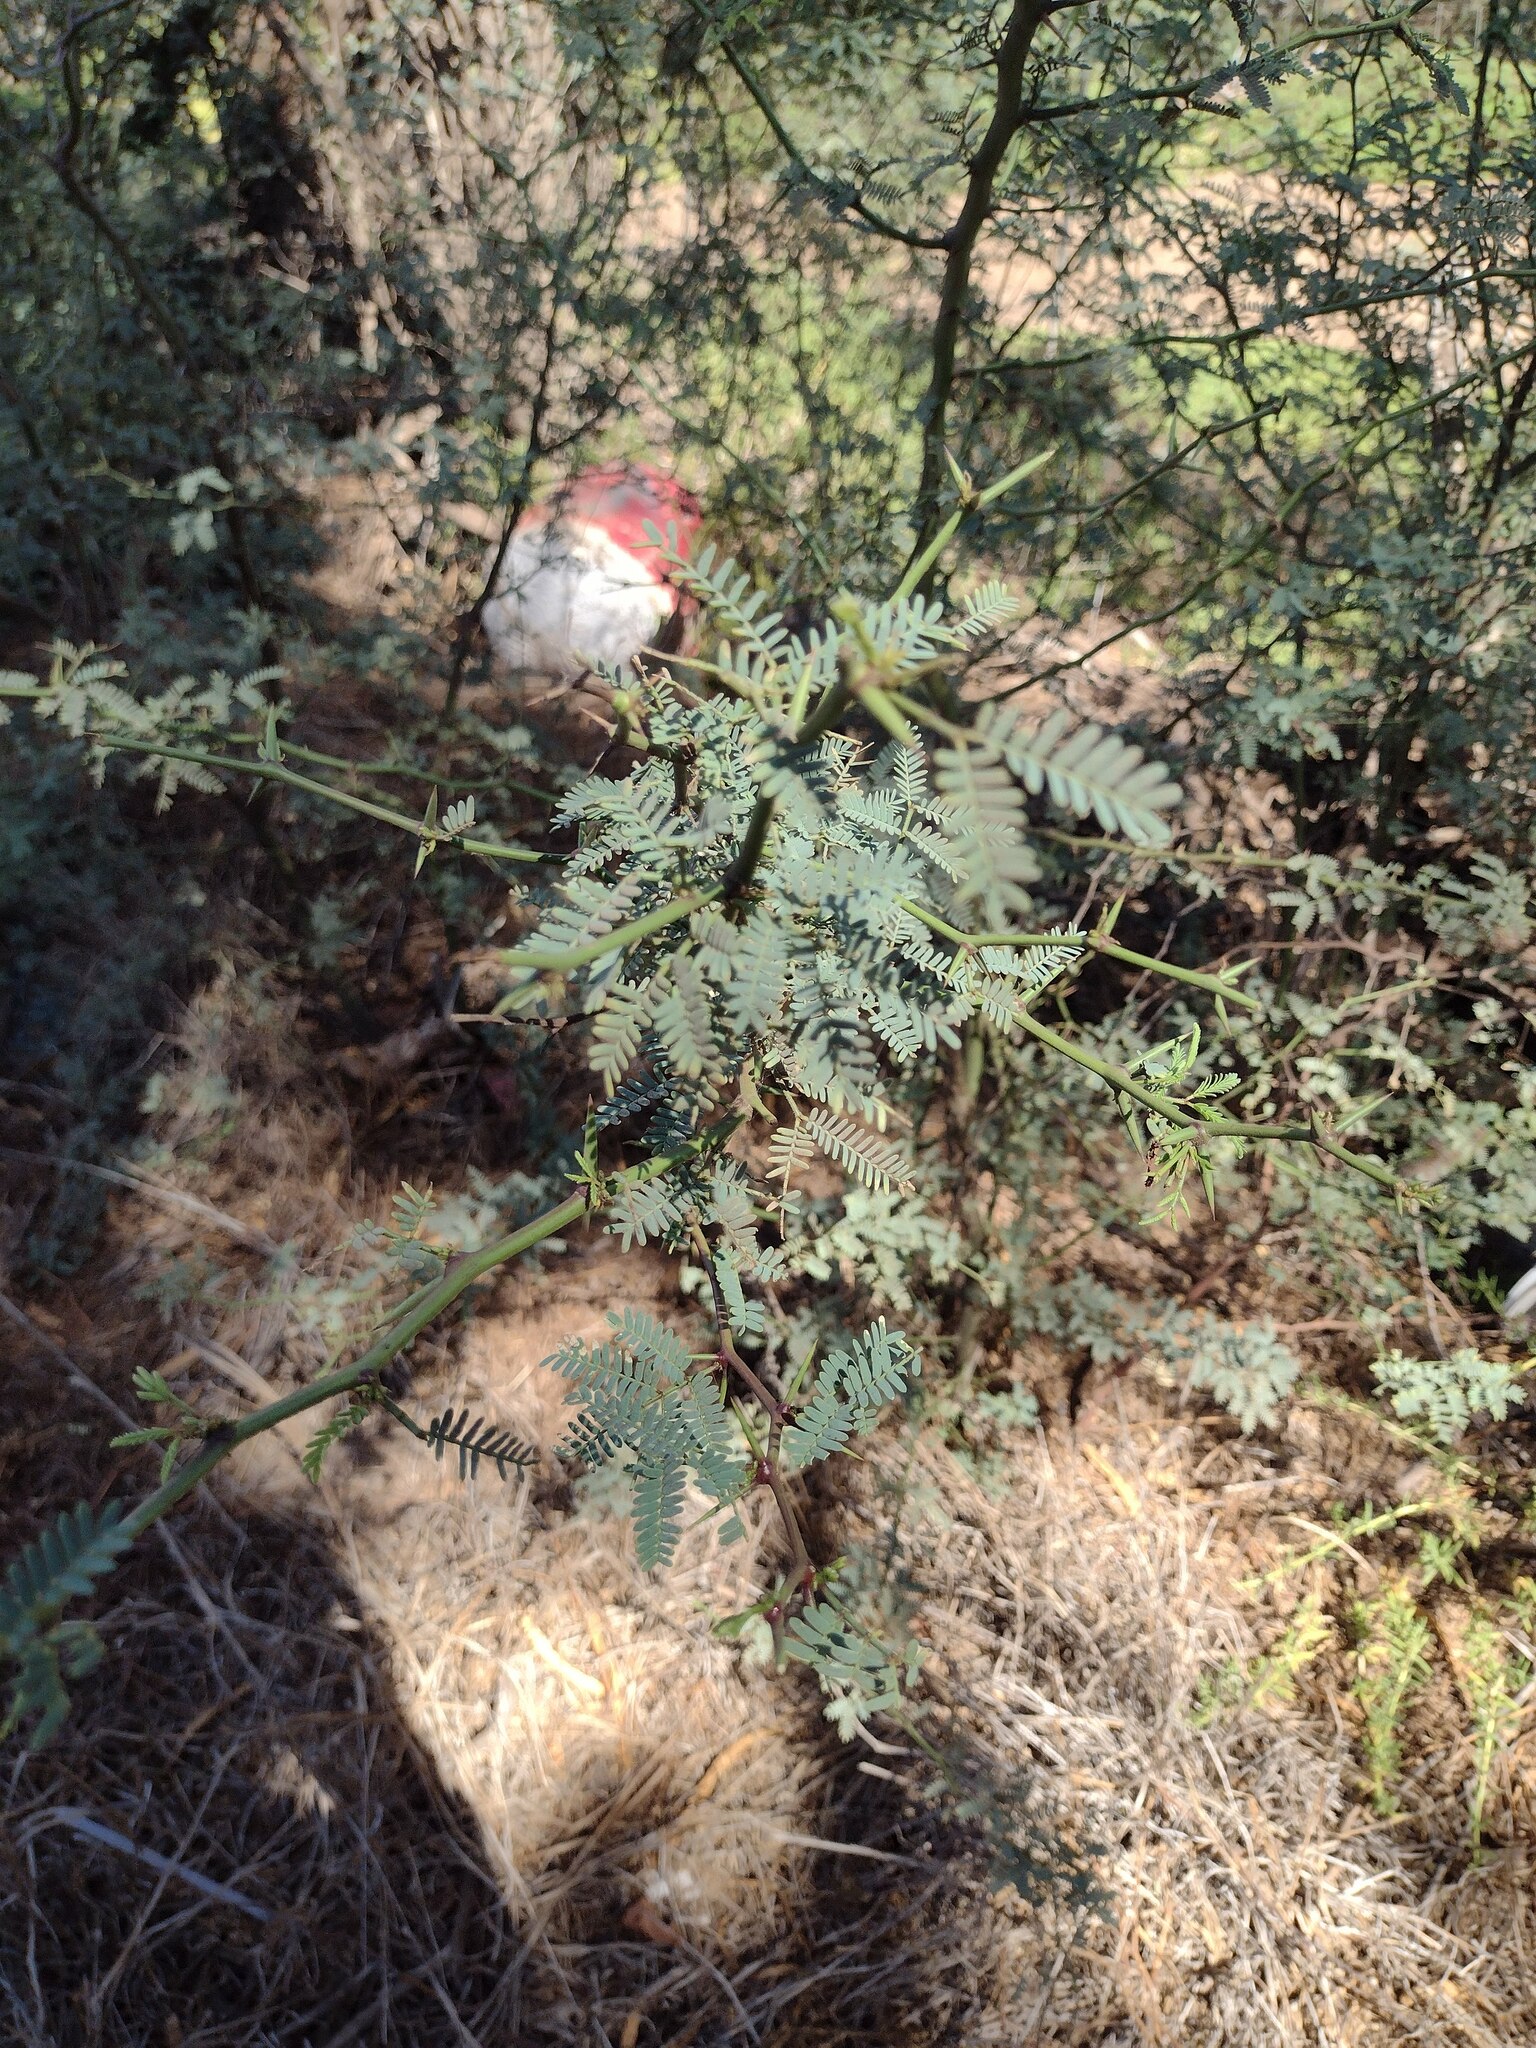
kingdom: Plantae
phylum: Tracheophyta
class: Magnoliopsida
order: Fabales
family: Fabaceae
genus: Prosopis
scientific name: Prosopis pallida
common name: Mesquite
